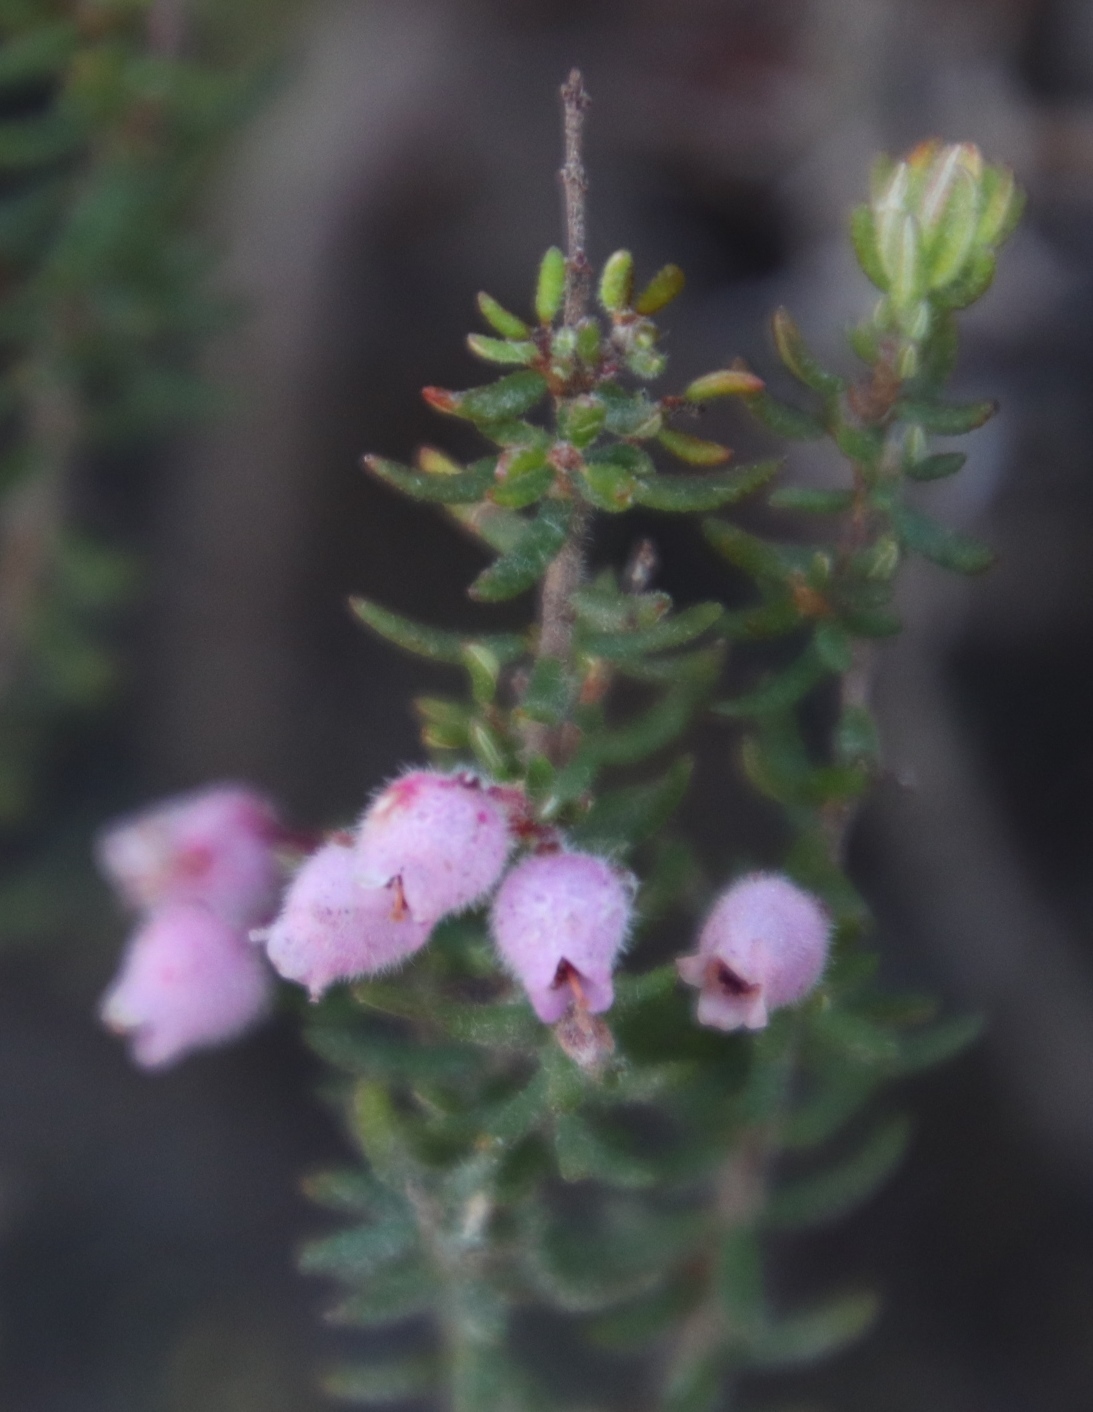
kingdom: Plantae
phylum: Tracheophyta
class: Magnoliopsida
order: Ericales
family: Ericaceae
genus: Erica
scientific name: Erica hirtiflora
